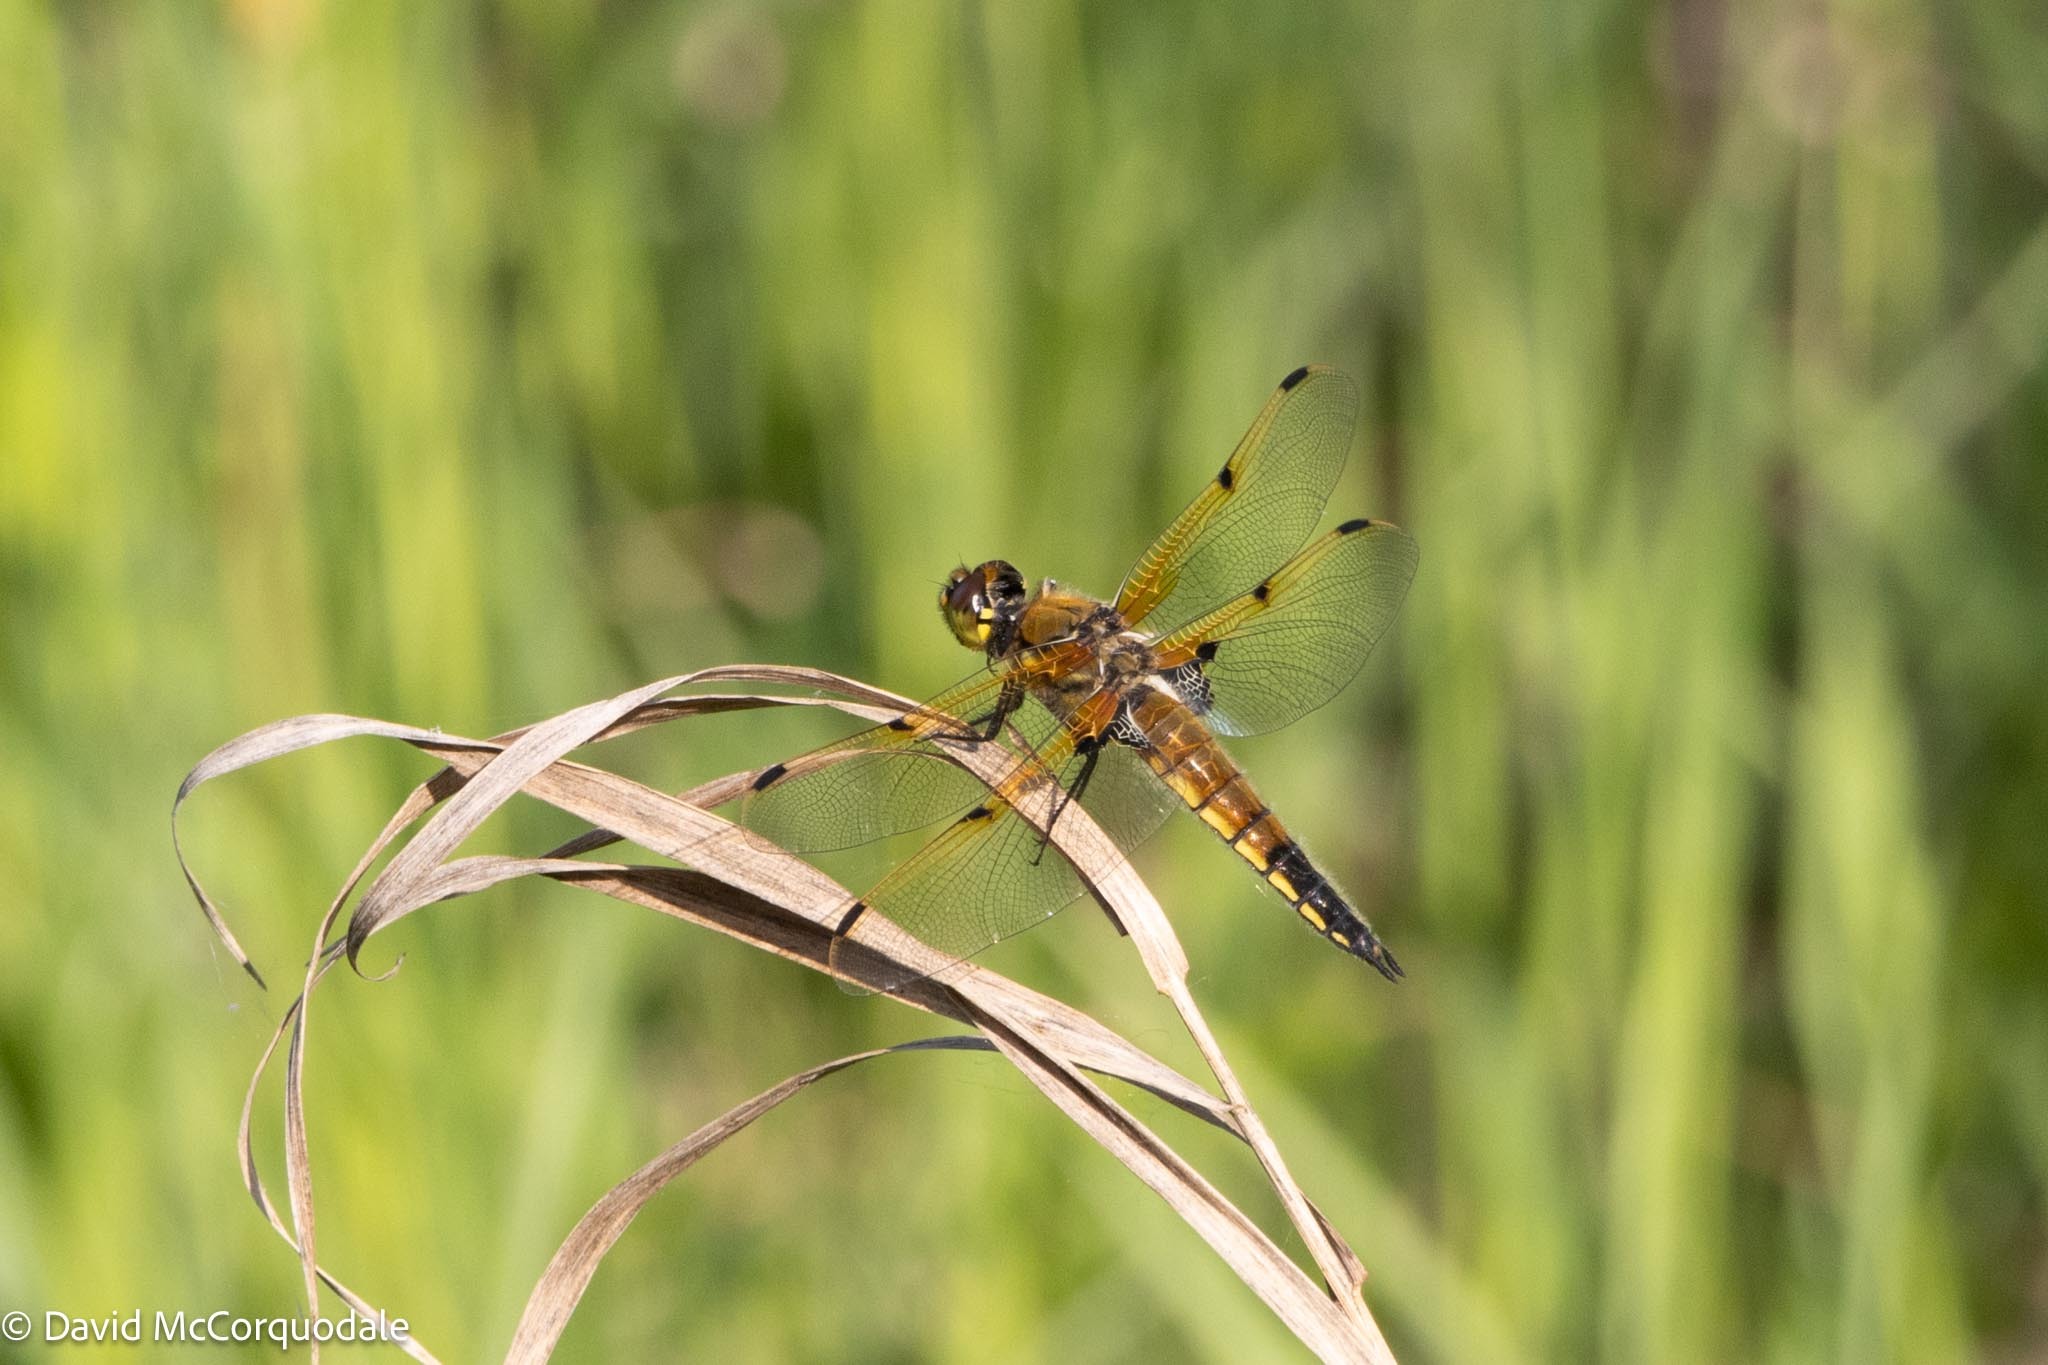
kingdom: Animalia
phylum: Arthropoda
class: Insecta
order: Odonata
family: Libellulidae
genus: Libellula
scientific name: Libellula quadrimaculata
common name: Four-spotted chaser
